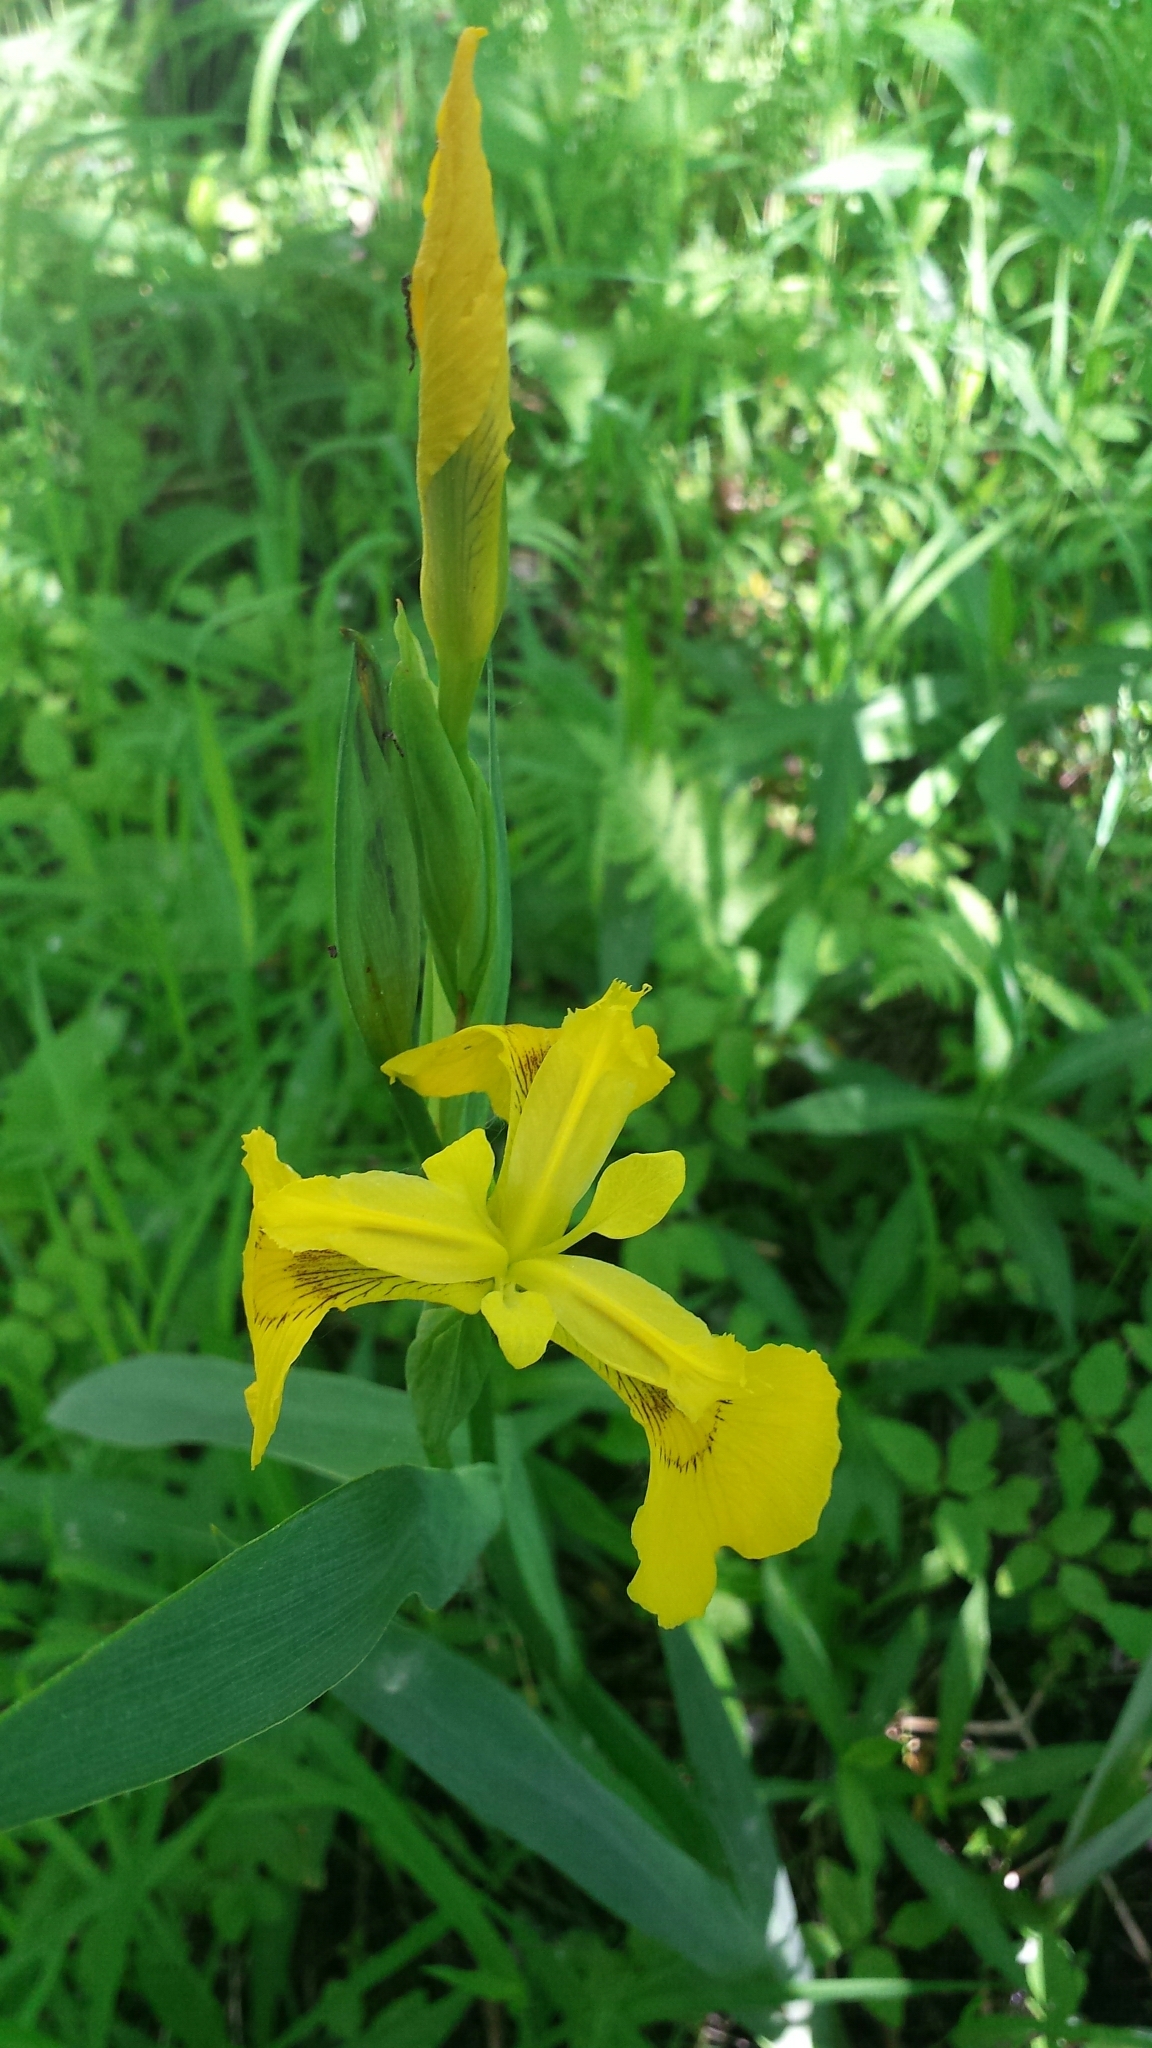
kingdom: Plantae
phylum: Tracheophyta
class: Liliopsida
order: Asparagales
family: Iridaceae
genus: Iris
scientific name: Iris pseudacorus
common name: Yellow flag
